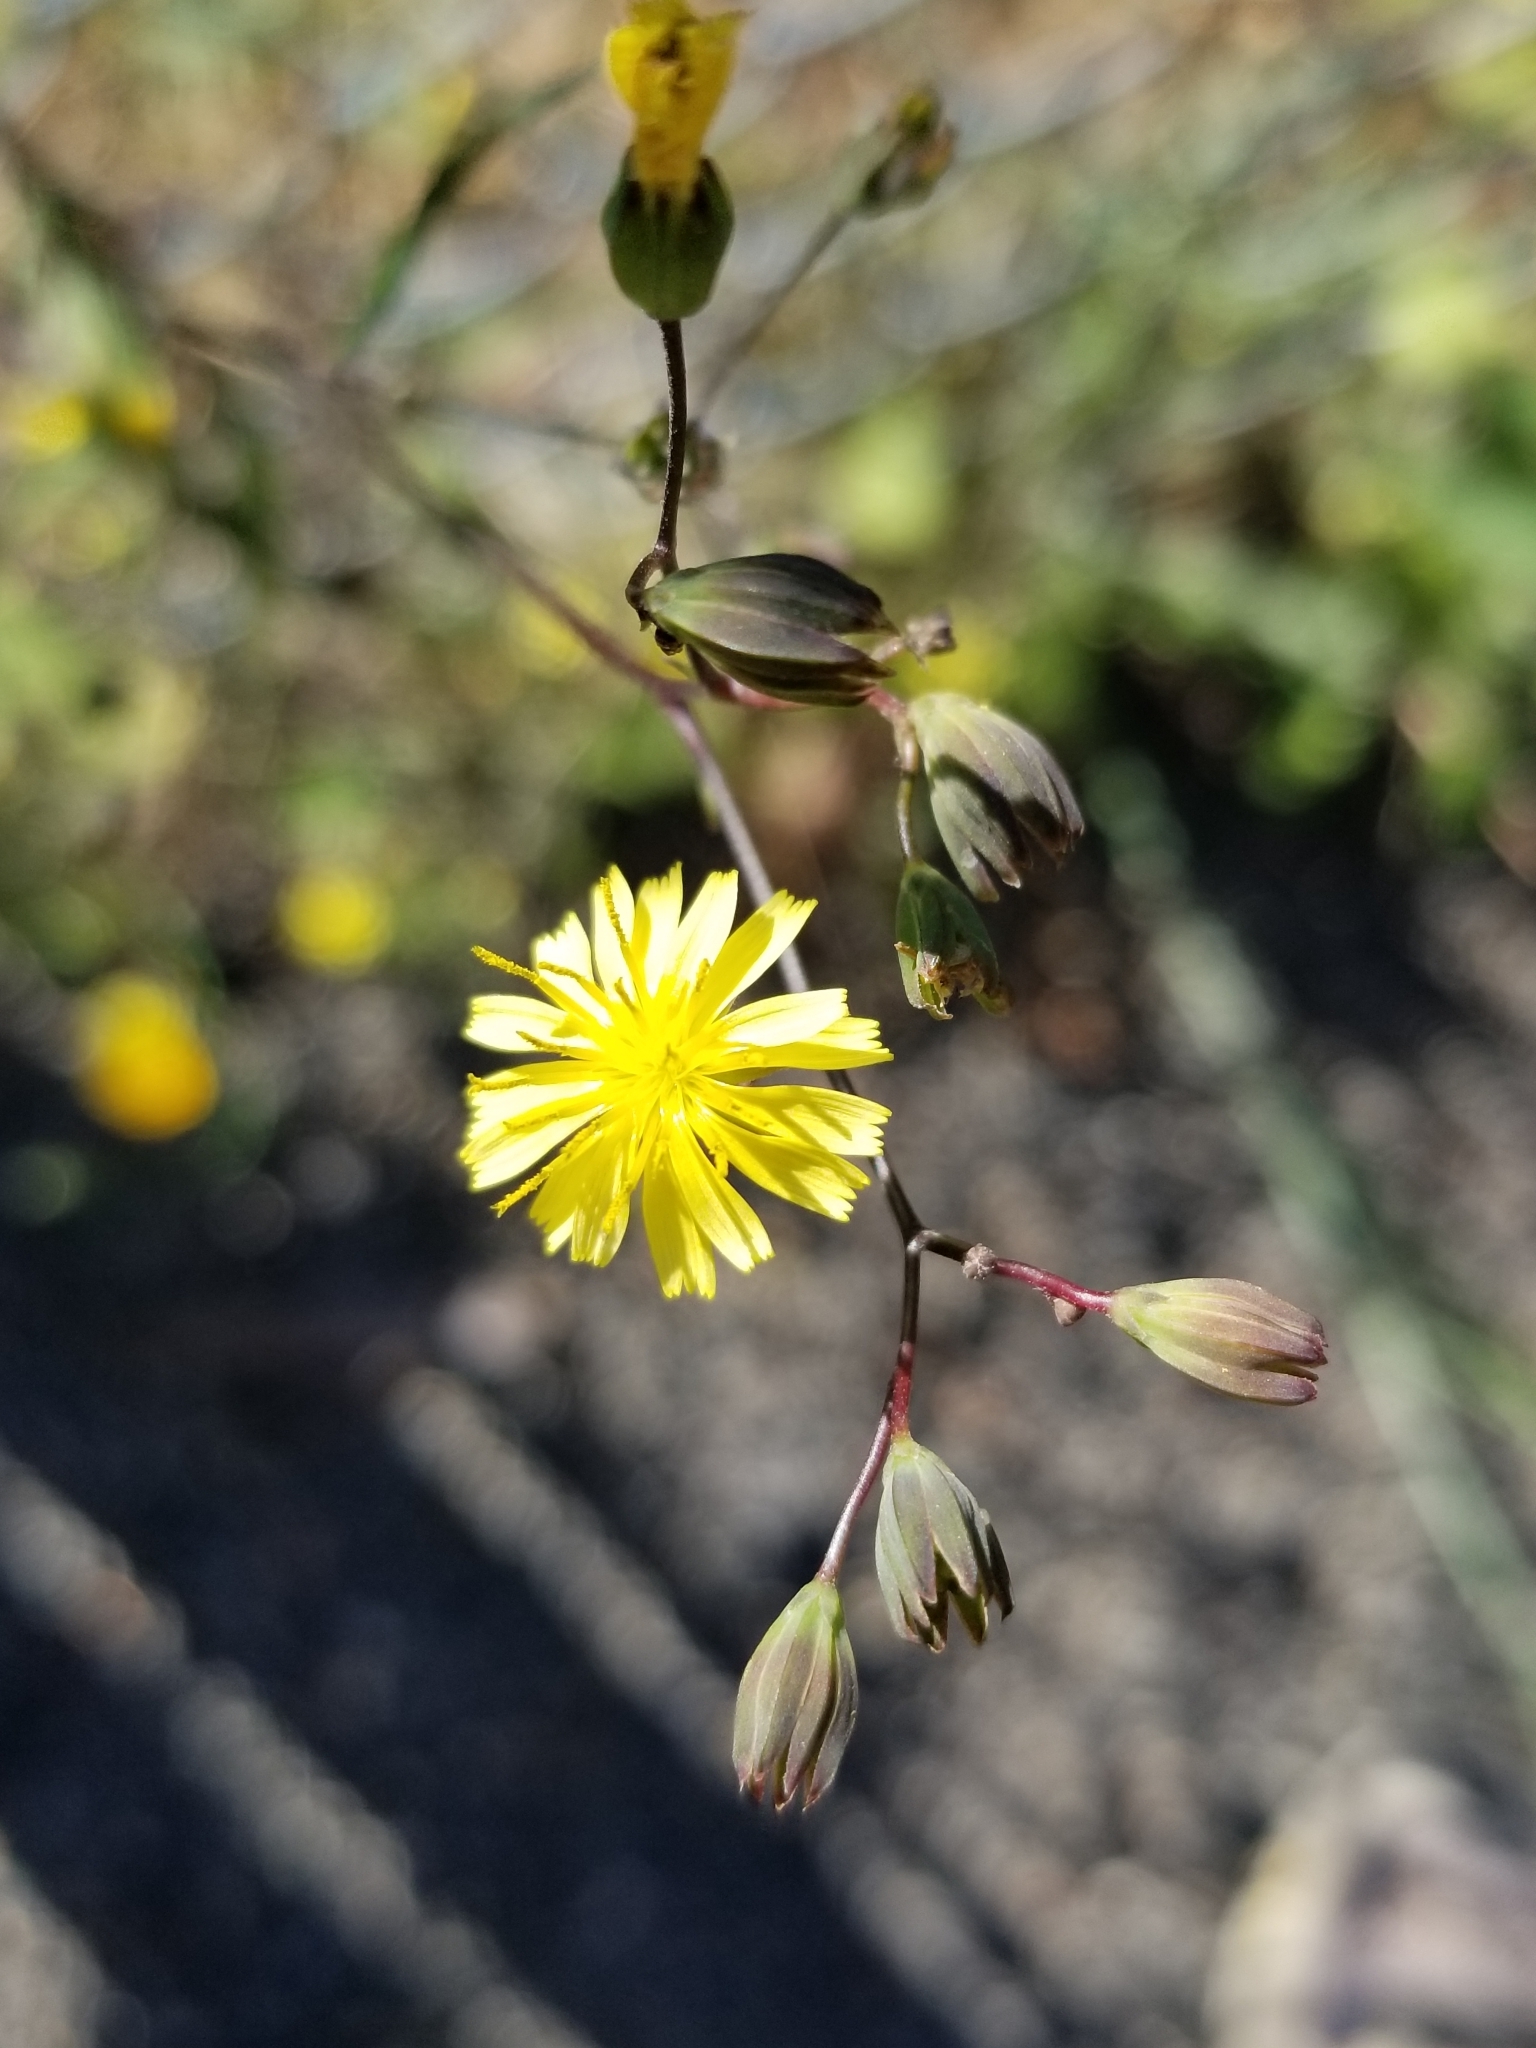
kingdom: Plantae
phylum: Tracheophyta
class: Magnoliopsida
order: Asterales
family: Asteraceae
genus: Lapsana
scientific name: Lapsana communis
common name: Nipplewort
